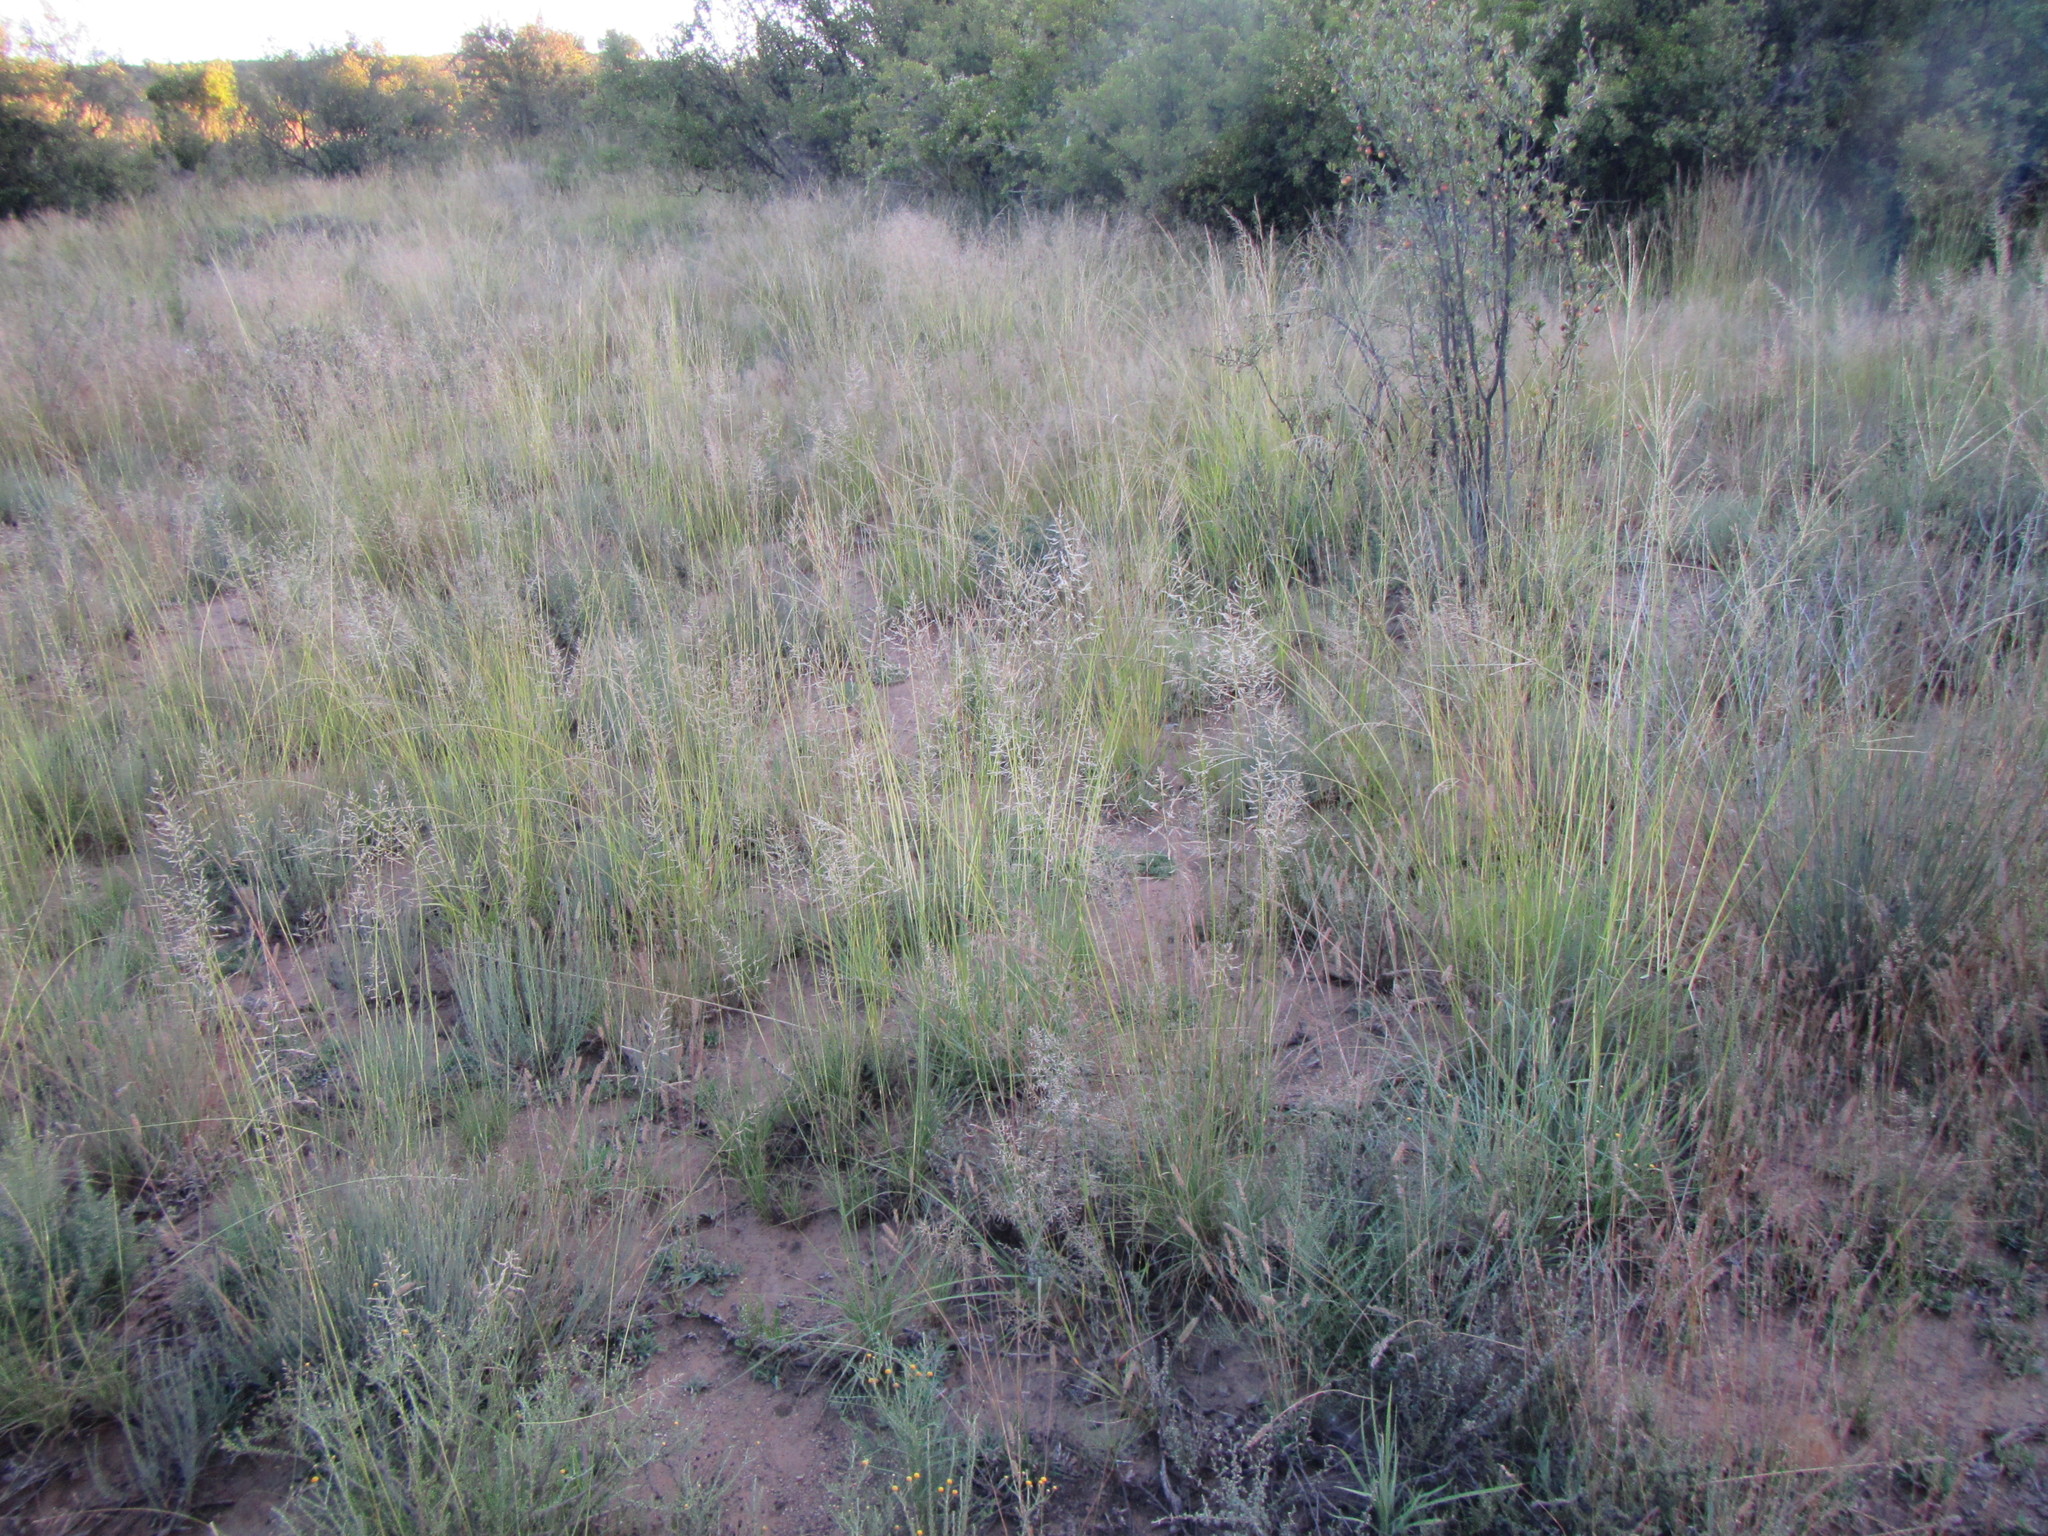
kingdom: Plantae
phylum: Tracheophyta
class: Magnoliopsida
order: Asterales
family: Asteraceae
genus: Pteronia
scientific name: Pteronia glauca
